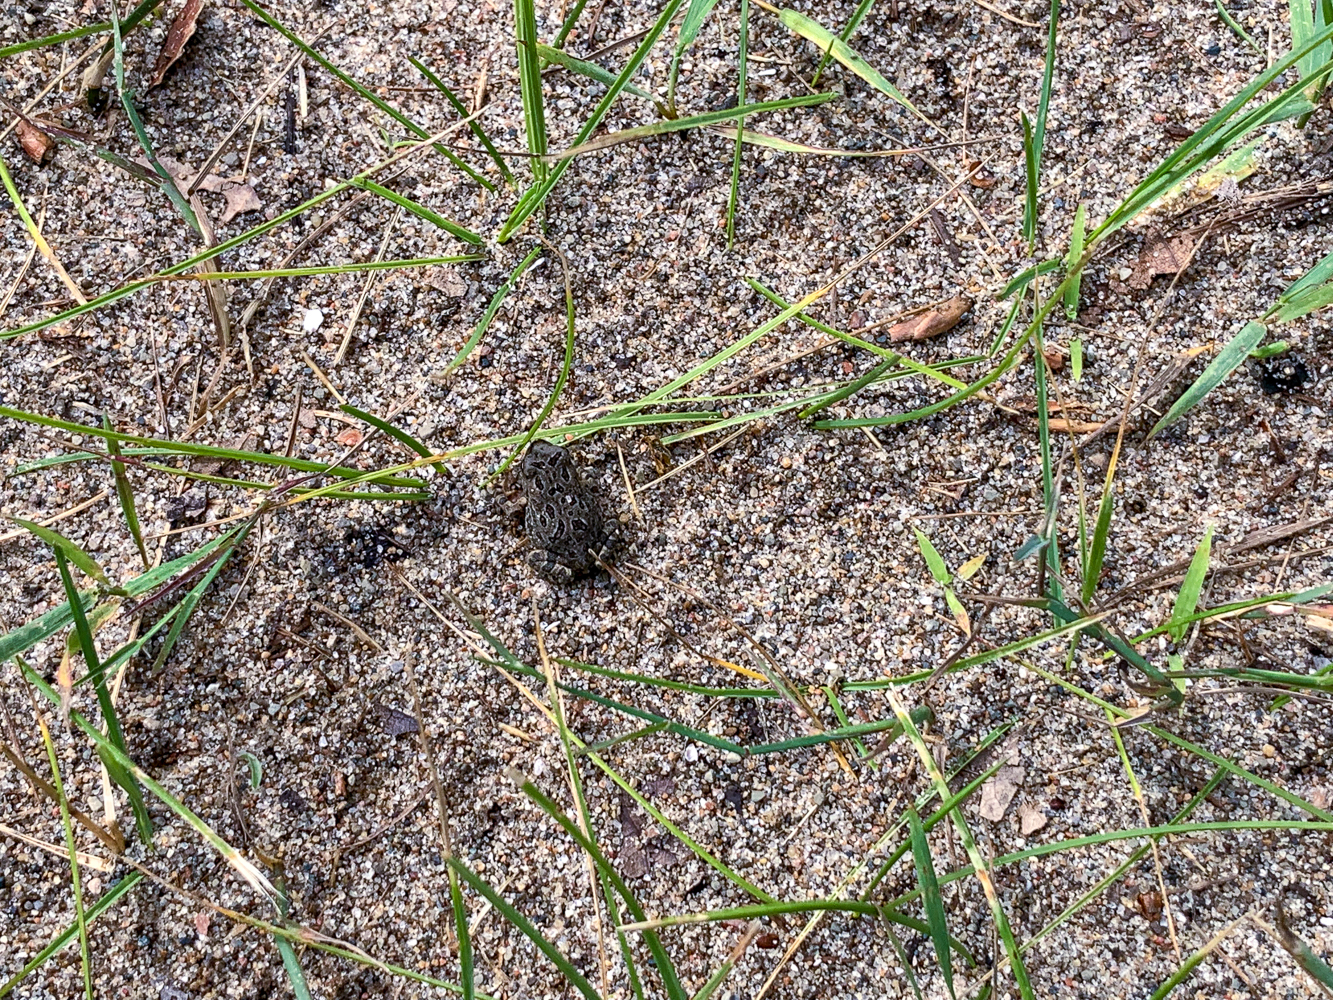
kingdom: Animalia
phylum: Chordata
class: Amphibia
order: Anura
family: Bufonidae
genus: Anaxyrus
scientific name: Anaxyrus fowleri
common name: Fowler's toad
